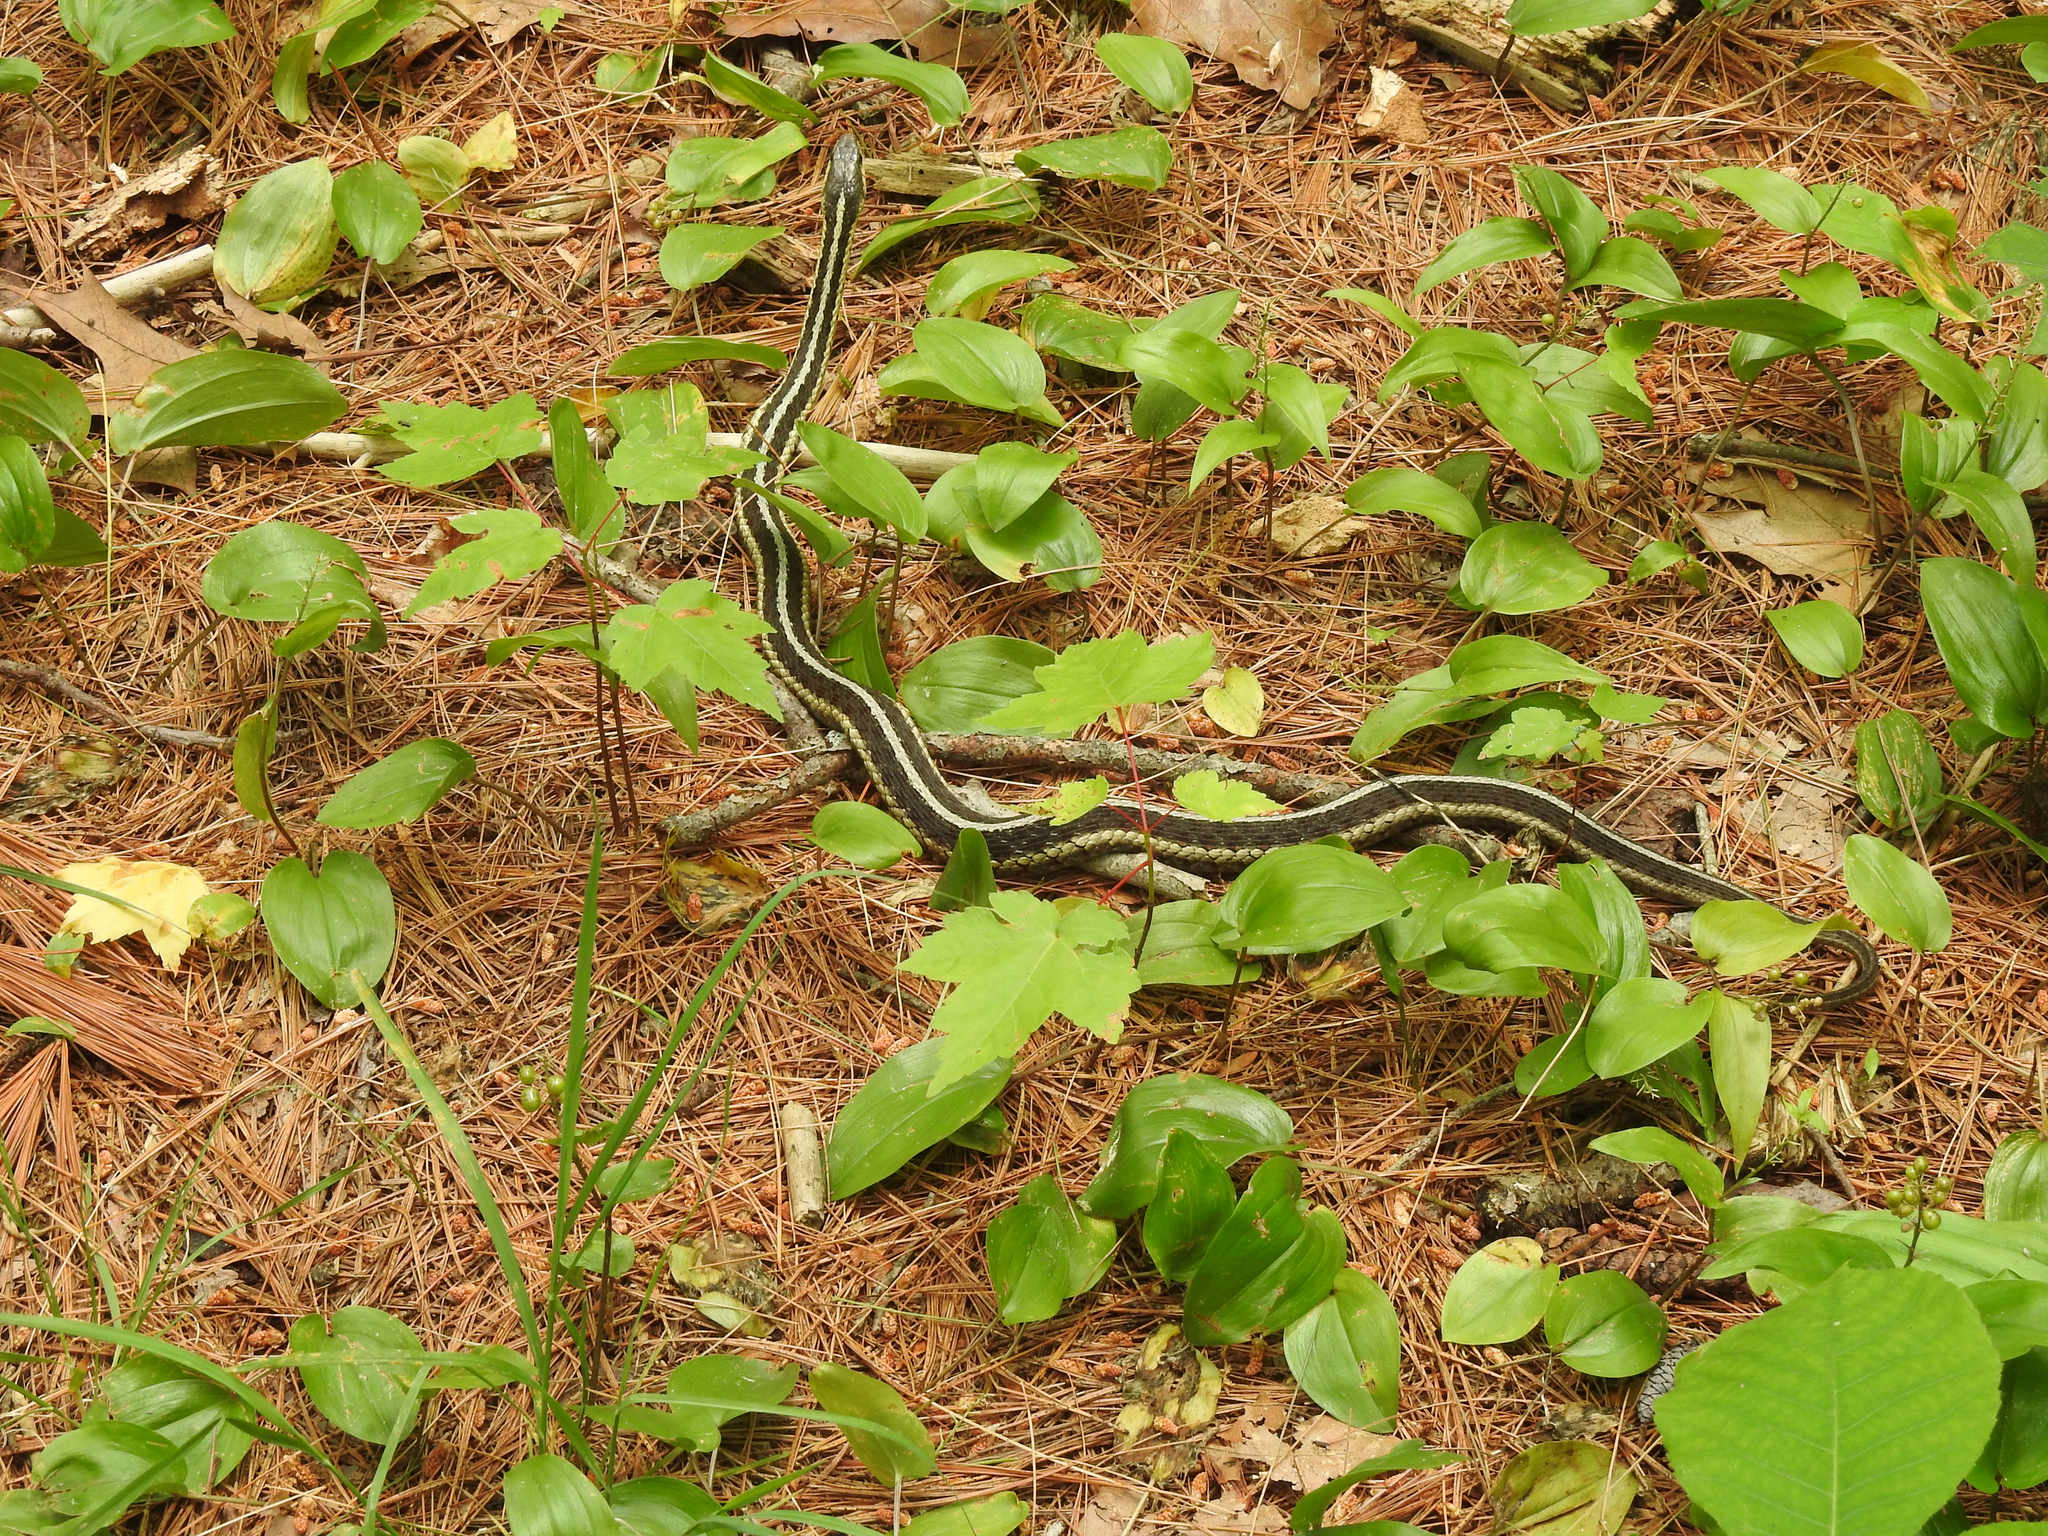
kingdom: Animalia
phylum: Chordata
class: Squamata
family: Colubridae
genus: Thamnophis
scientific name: Thamnophis sirtalis
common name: Common garter snake
